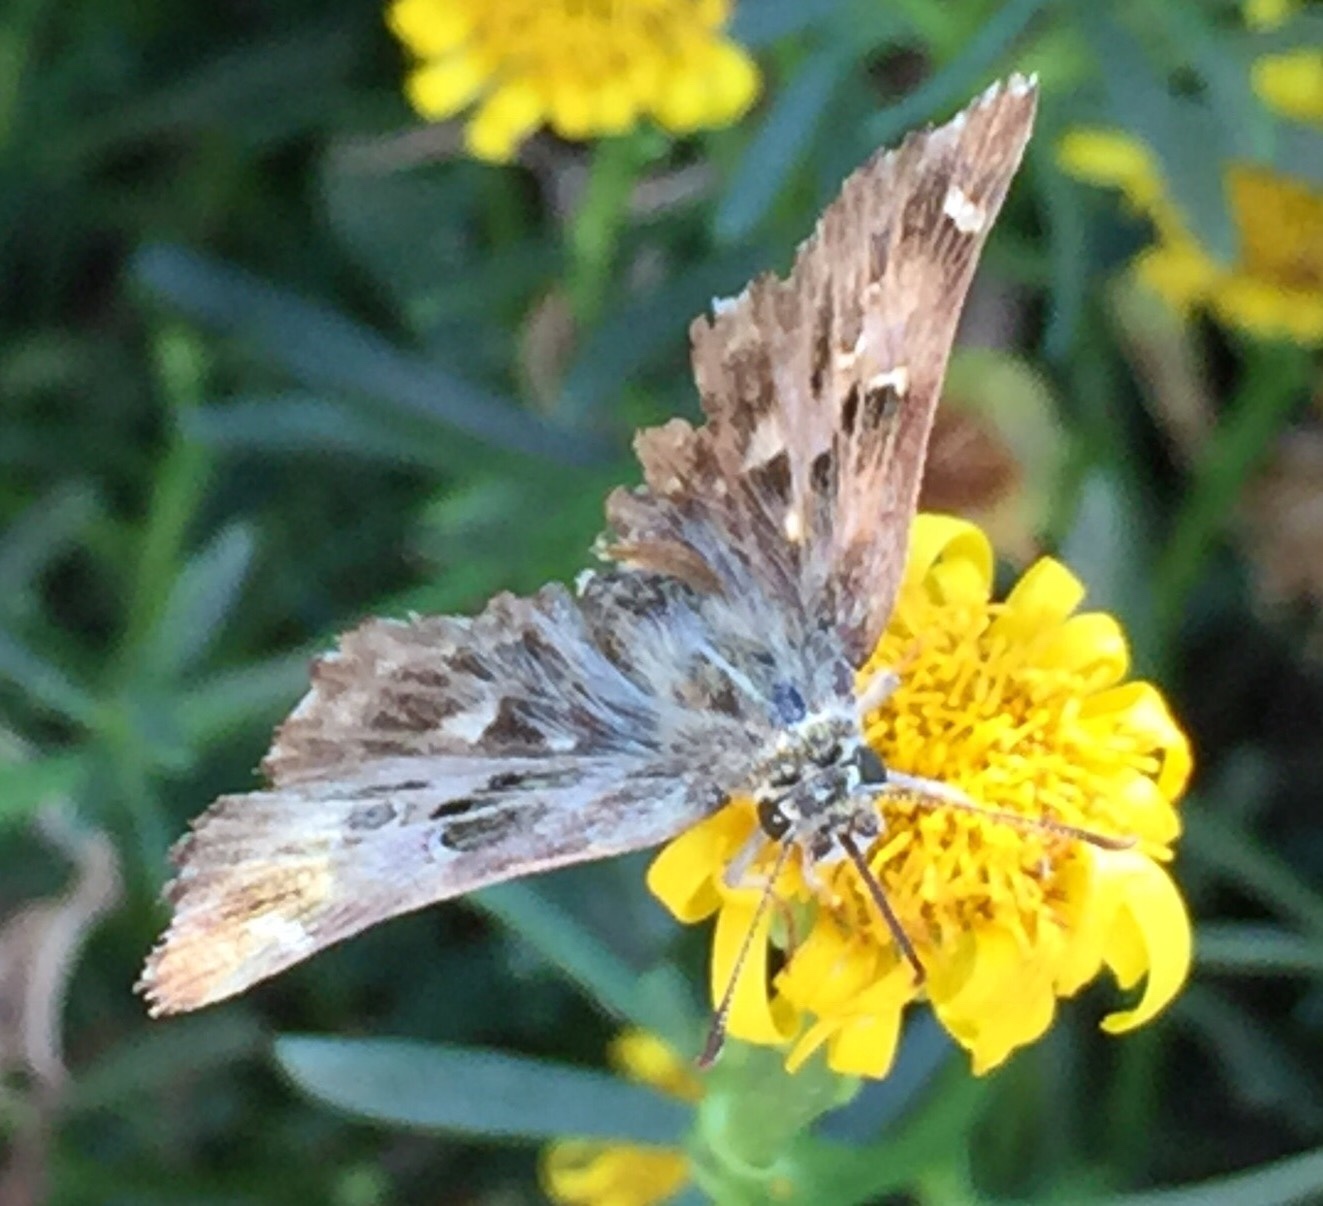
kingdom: Animalia
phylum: Arthropoda
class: Insecta
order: Lepidoptera
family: Hesperiidae
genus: Carcharodus
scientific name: Carcharodus alceae
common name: Mallow skipper
